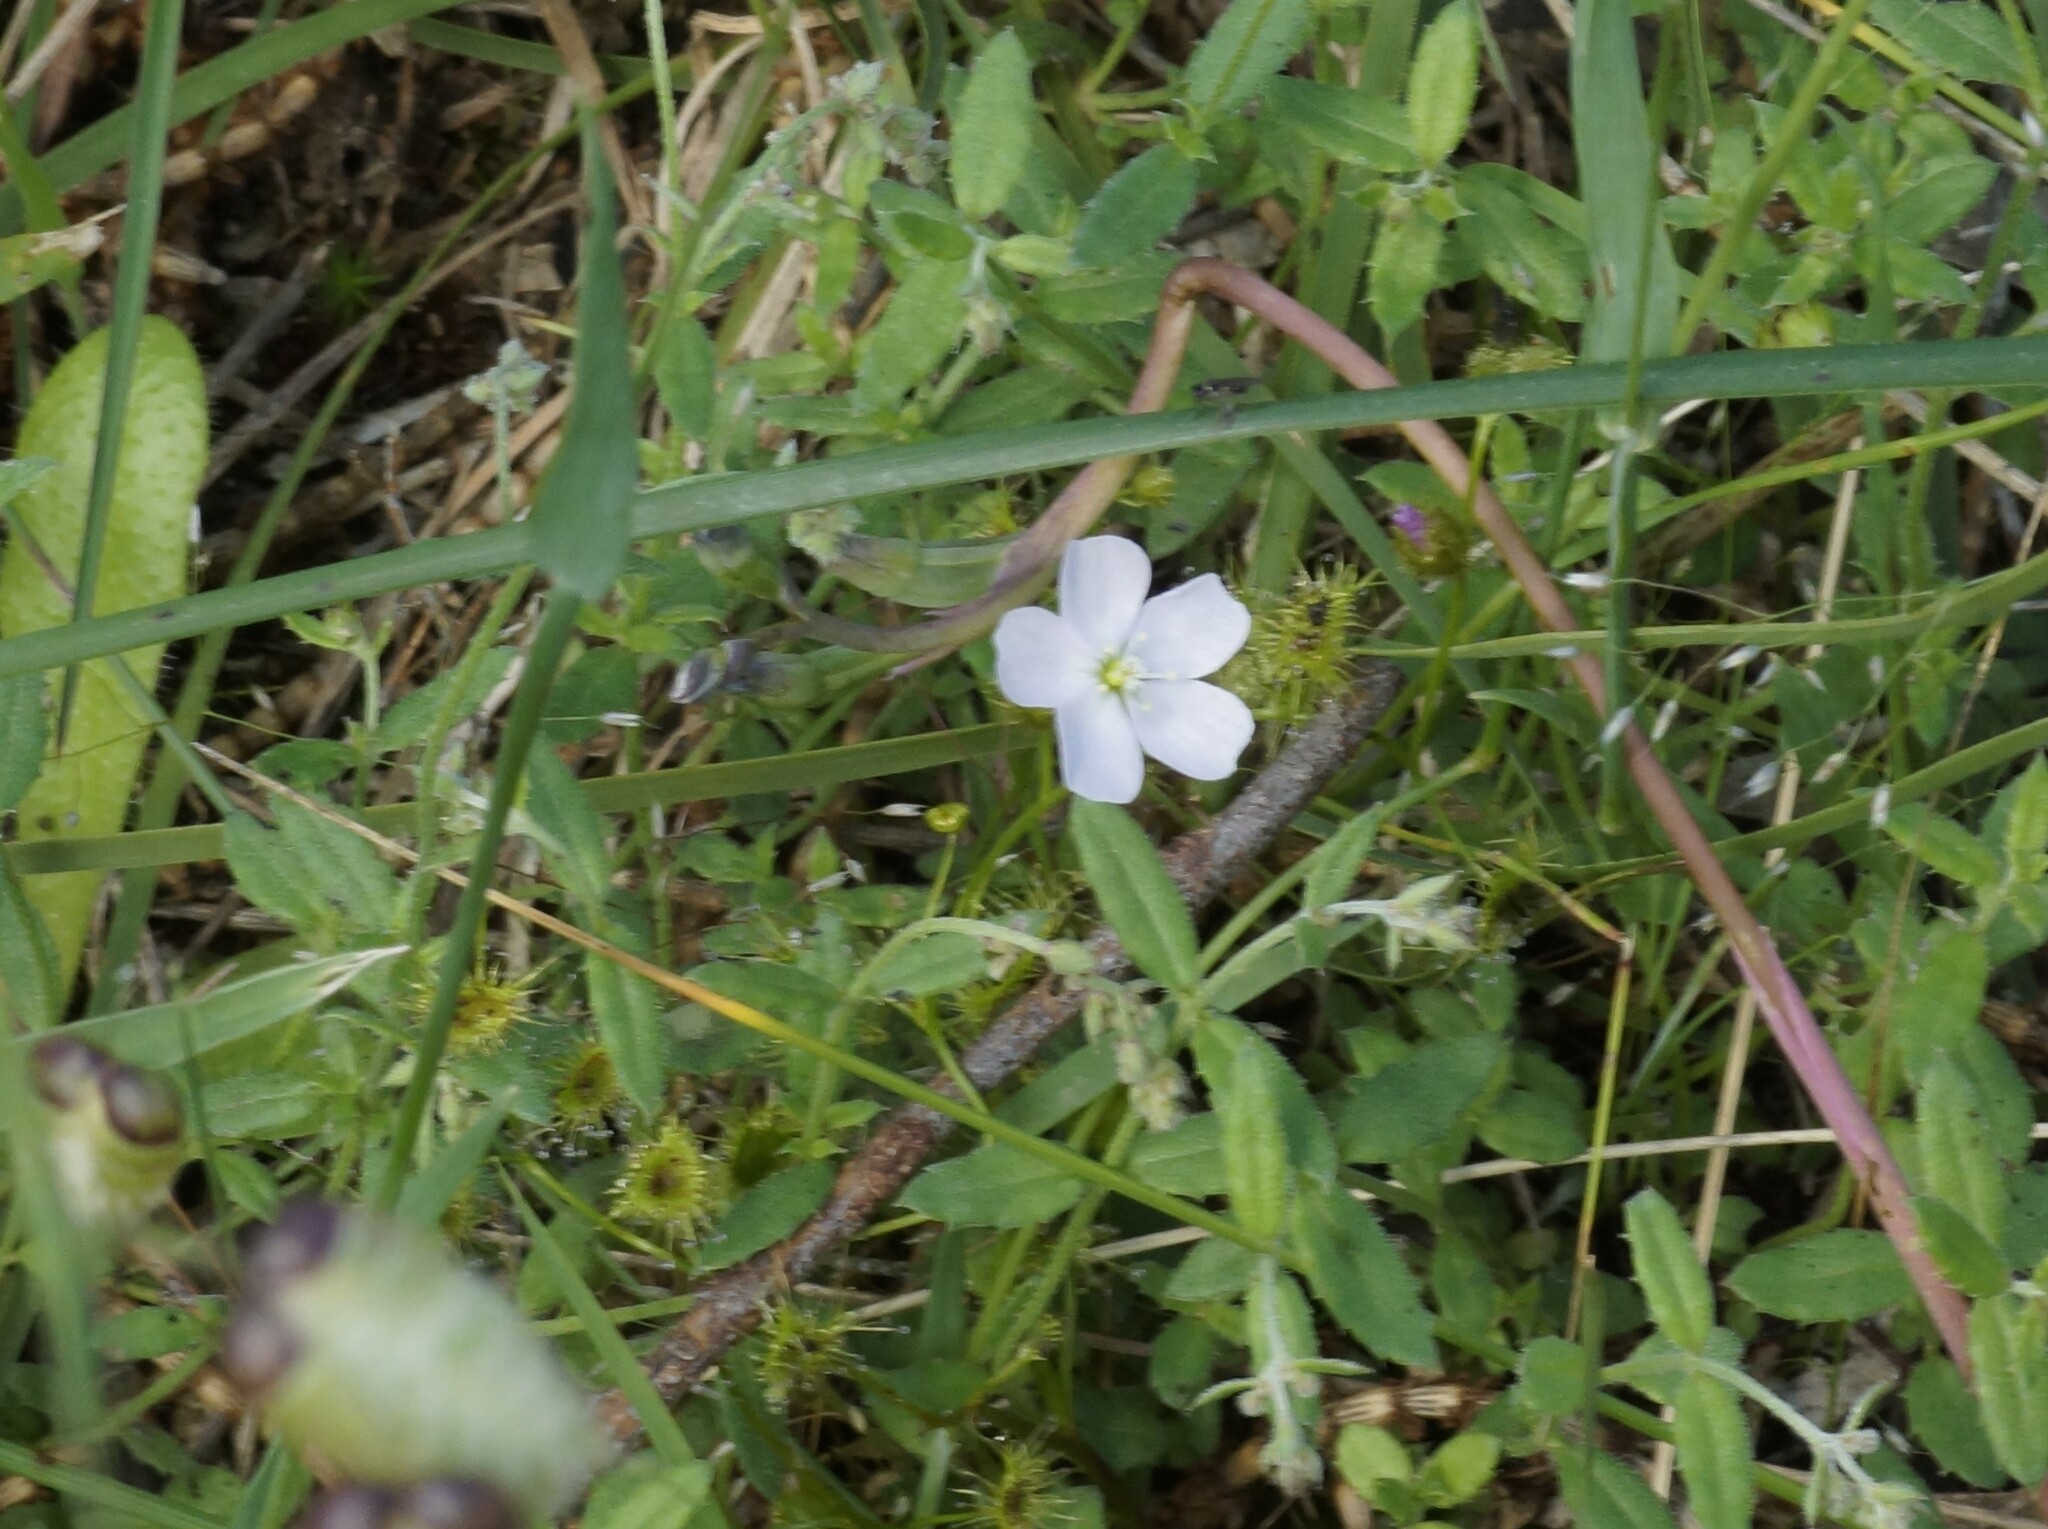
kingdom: Plantae
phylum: Tracheophyta
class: Magnoliopsida
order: Caryophyllales
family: Droseraceae
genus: Drosera
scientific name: Drosera gunniana
